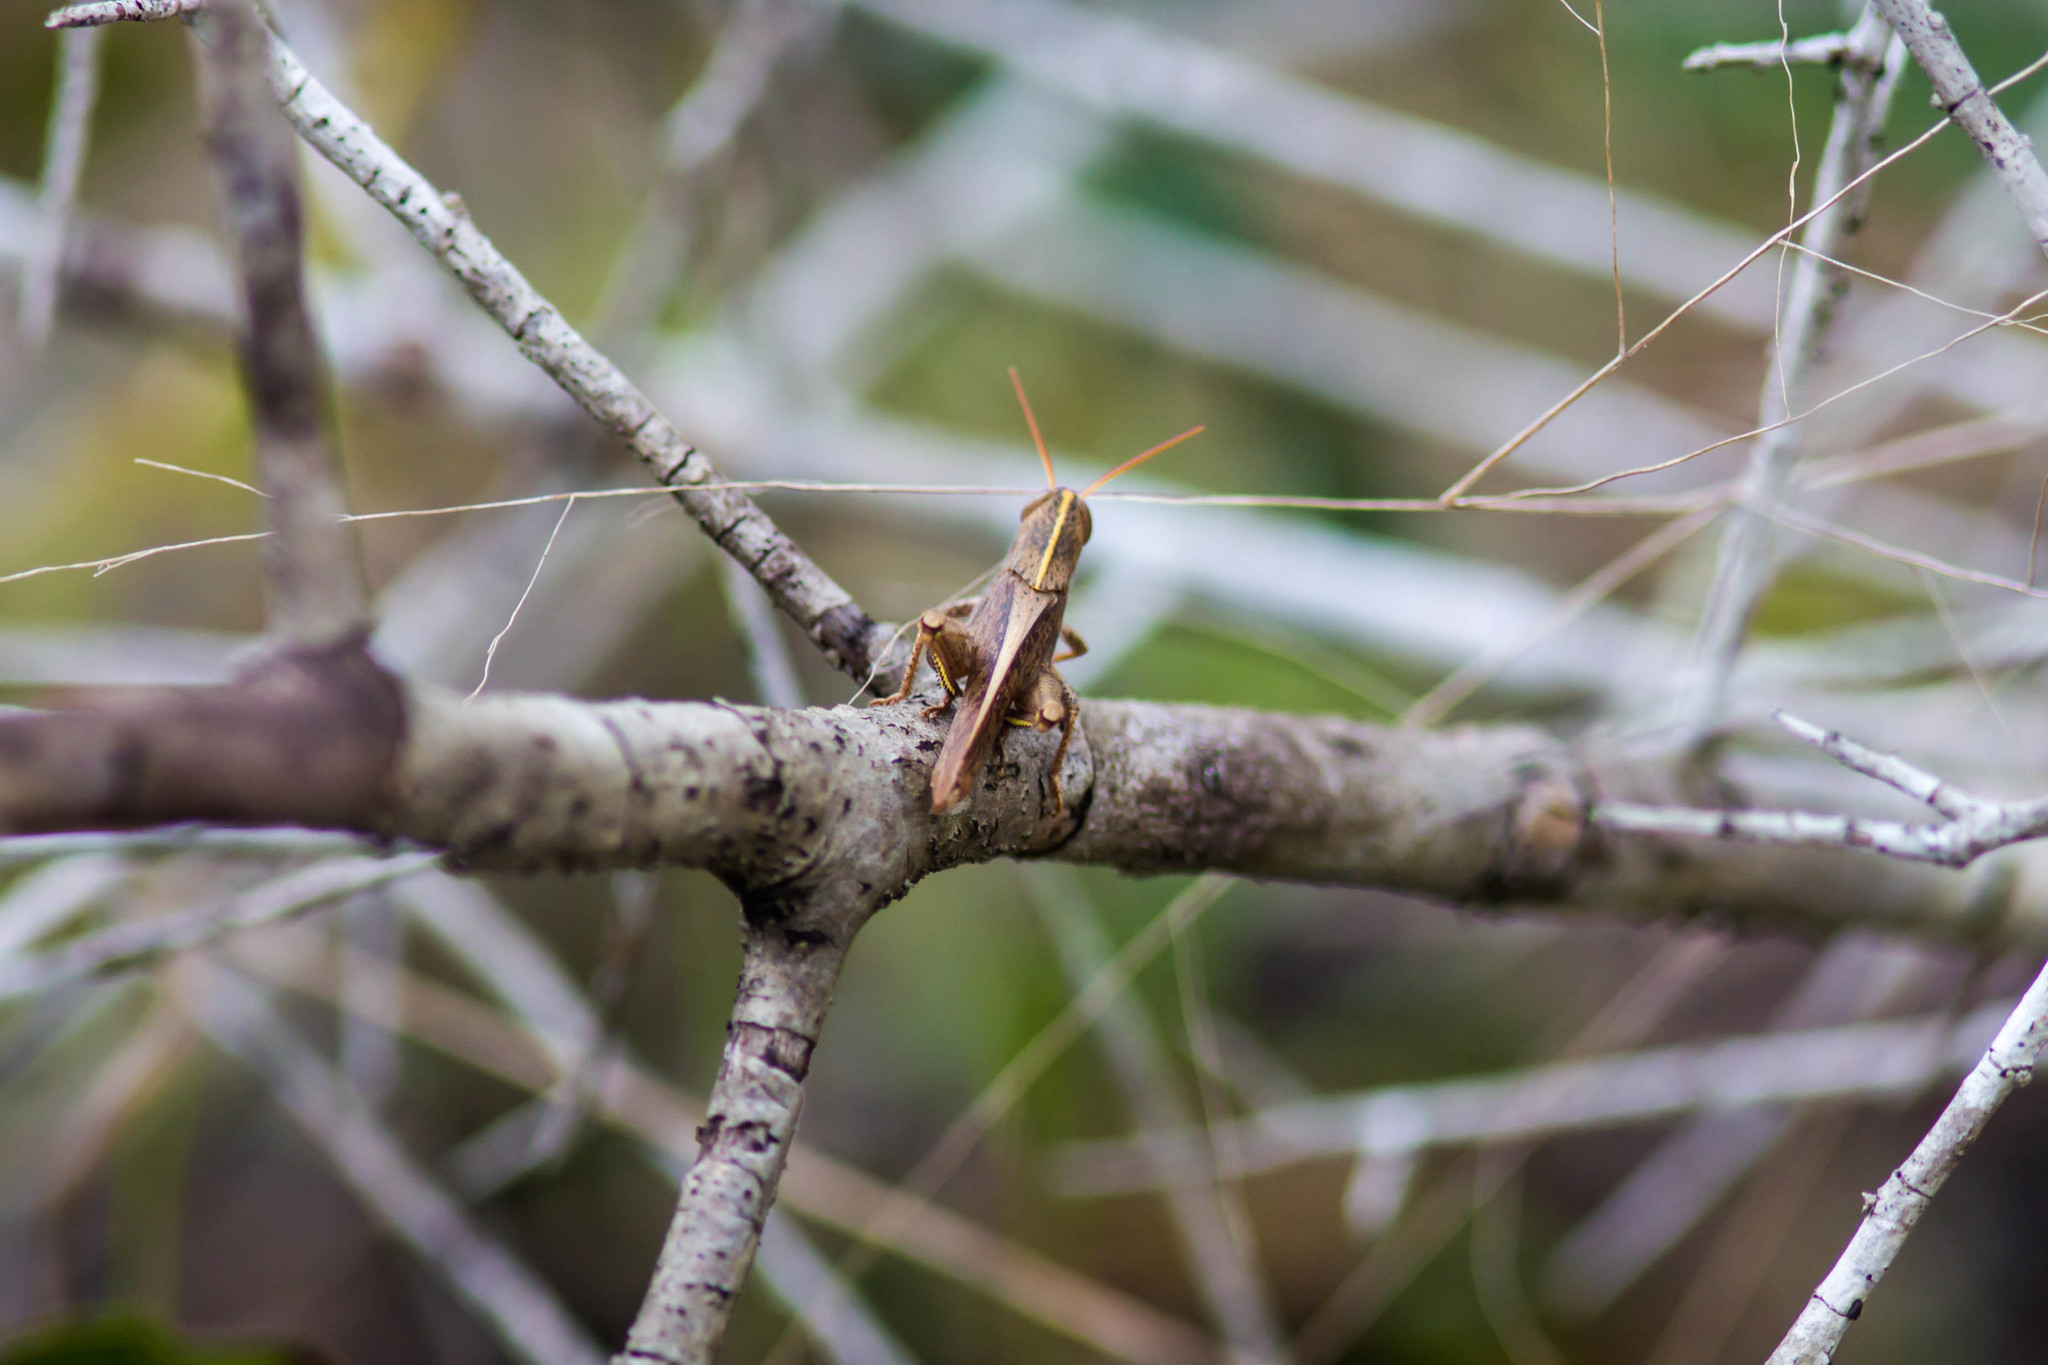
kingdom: Animalia
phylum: Arthropoda
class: Insecta
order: Orthoptera
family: Acrididae
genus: Schistocerca
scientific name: Schistocerca damnifica
